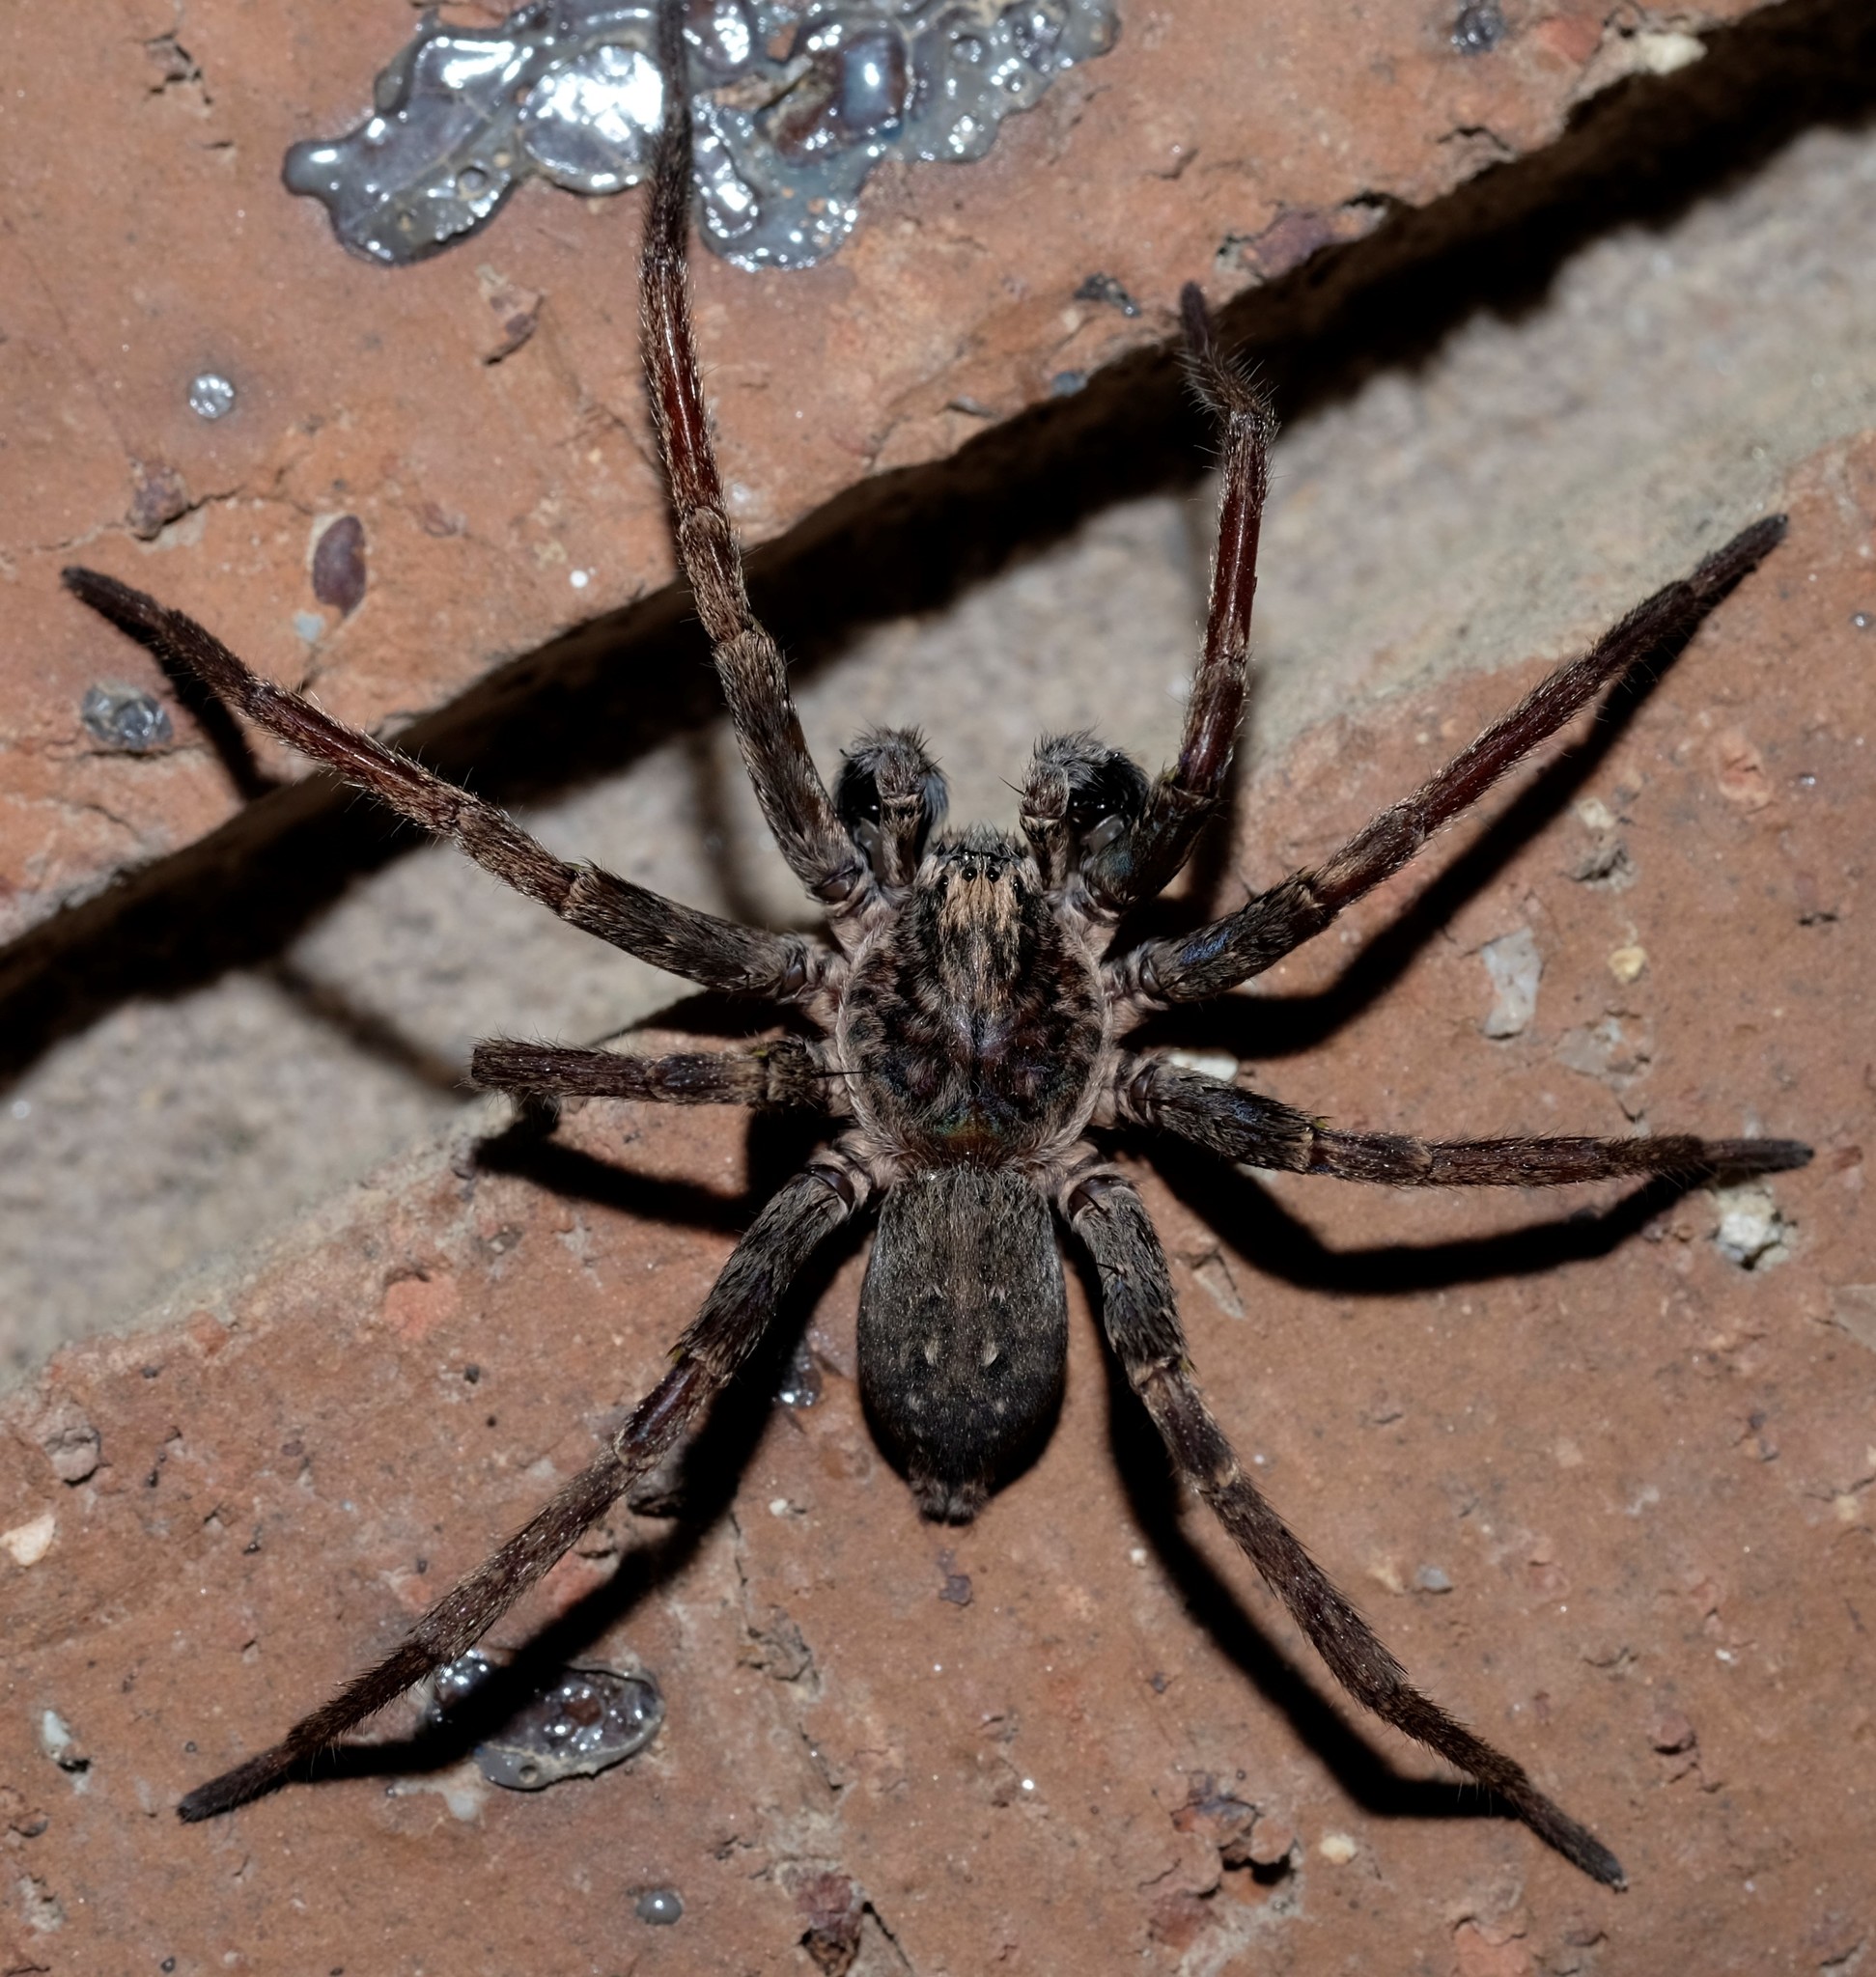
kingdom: Animalia
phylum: Arthropoda
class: Arachnida
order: Araneae
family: Miturgidae
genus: Mituliodon
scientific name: Mituliodon tarantulinus
